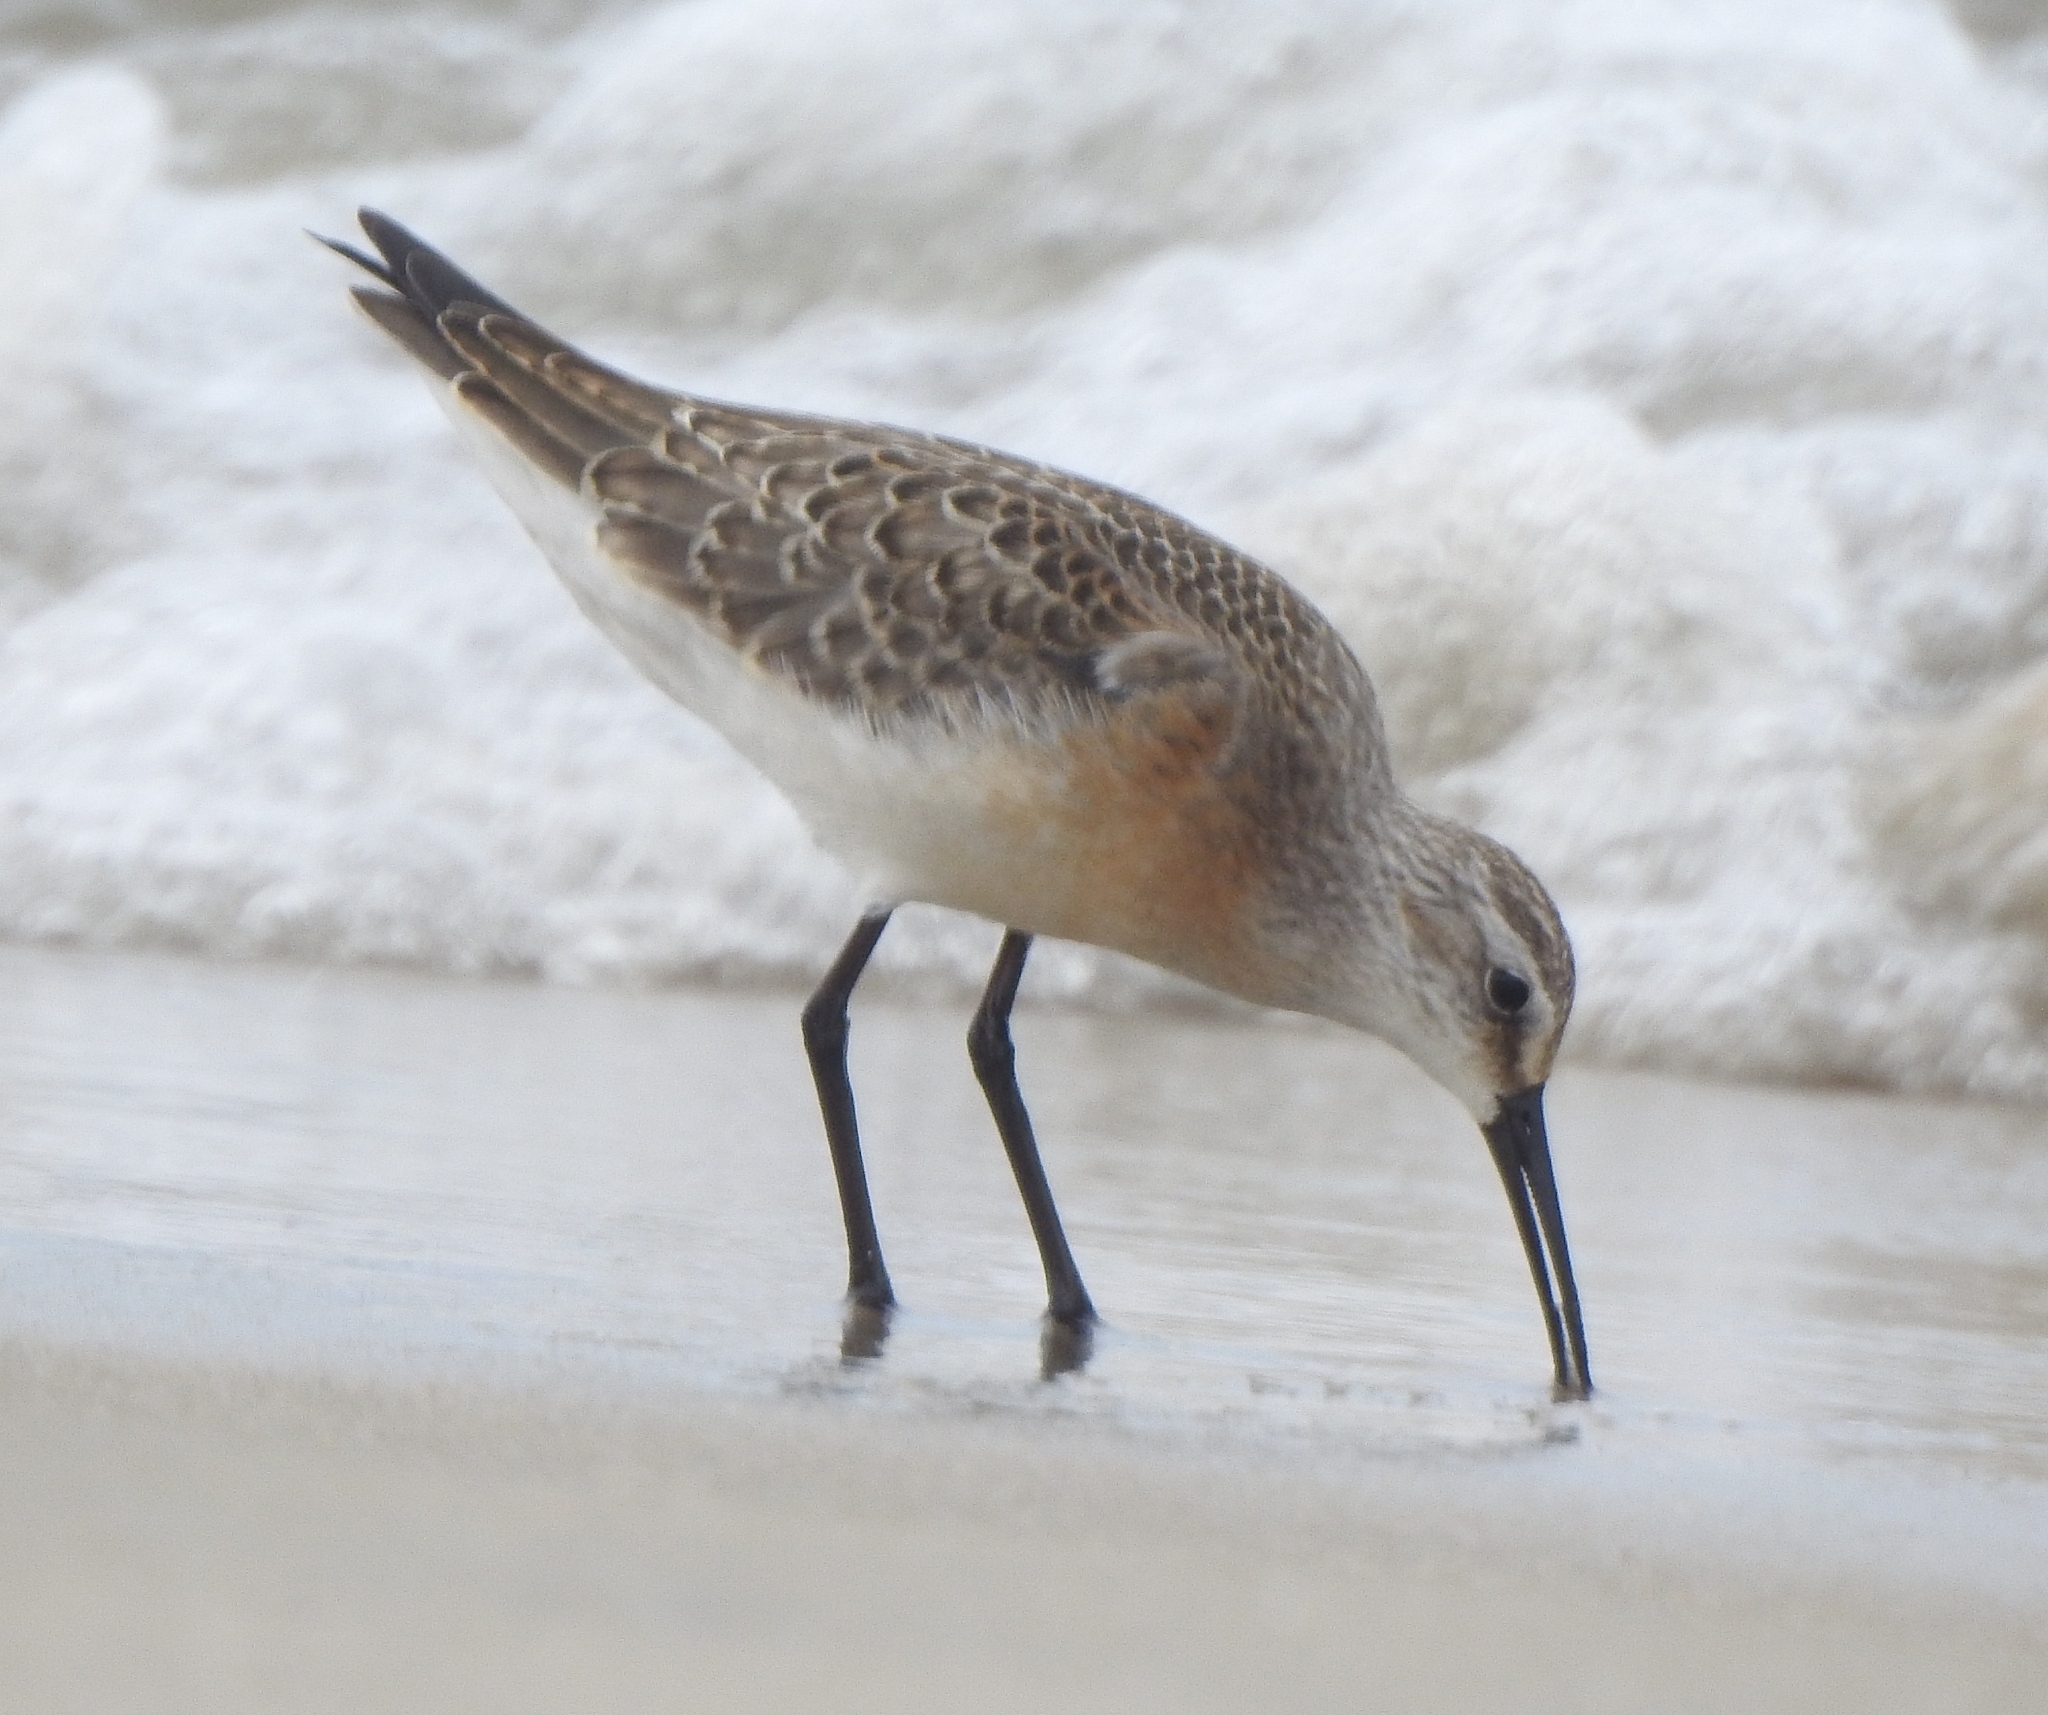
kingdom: Animalia
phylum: Chordata
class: Aves
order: Charadriiformes
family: Scolopacidae
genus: Calidris
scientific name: Calidris ferruginea
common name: Curlew sandpiper
